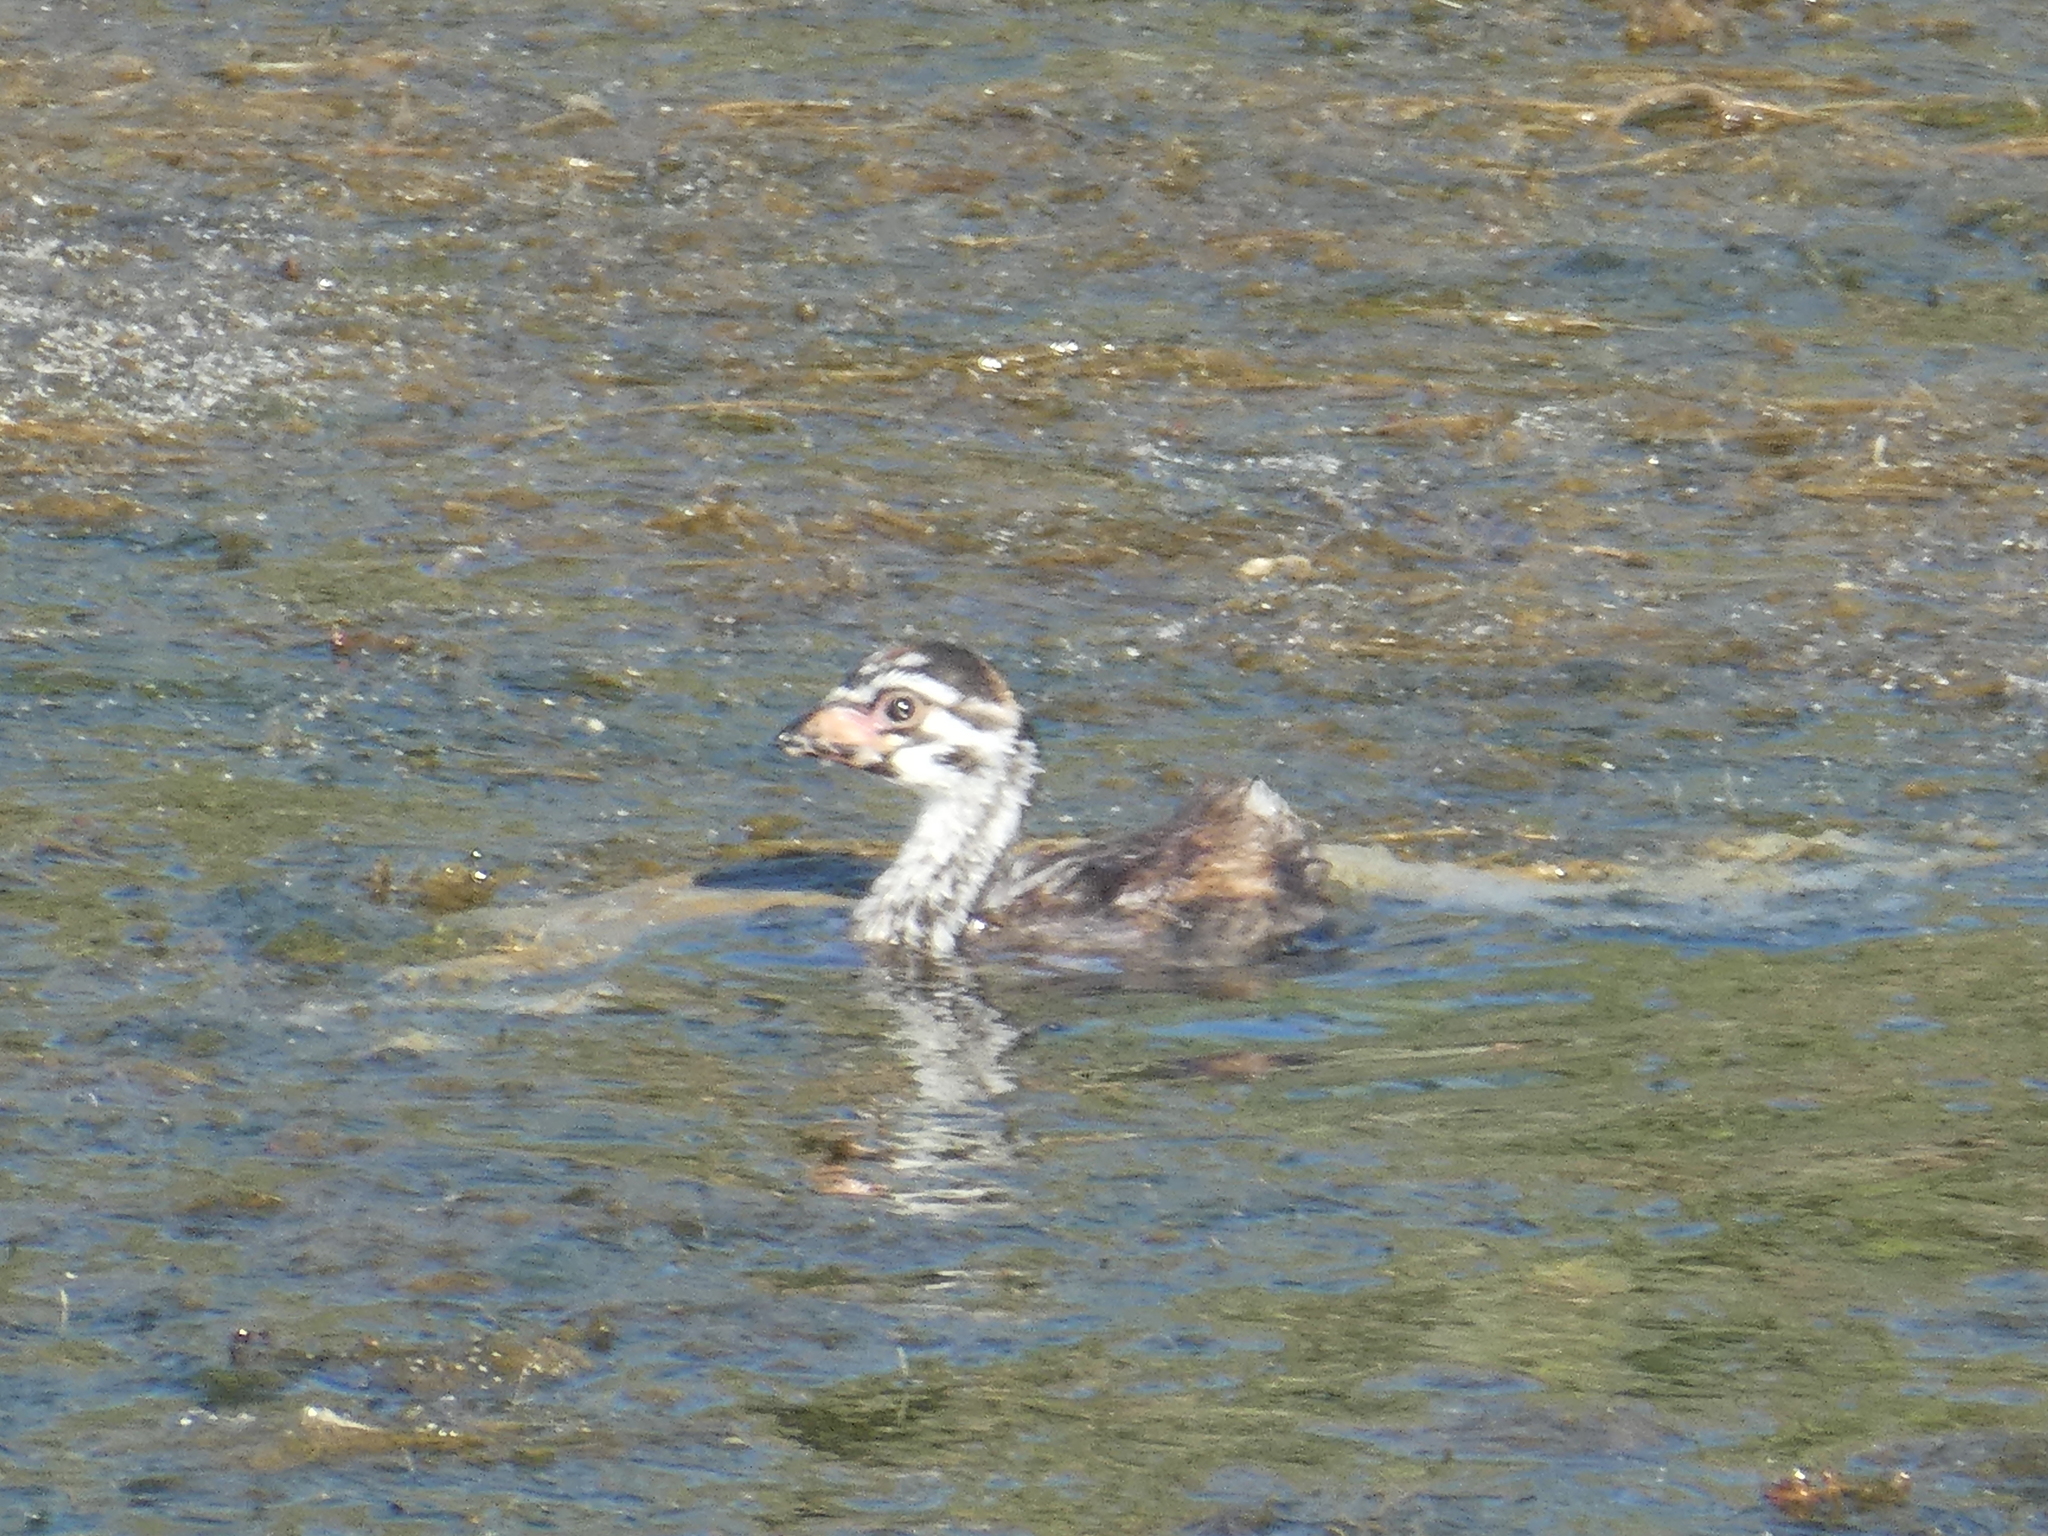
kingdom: Animalia
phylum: Chordata
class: Aves
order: Podicipediformes
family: Podicipedidae
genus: Podilymbus
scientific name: Podilymbus podiceps
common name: Pied-billed grebe
